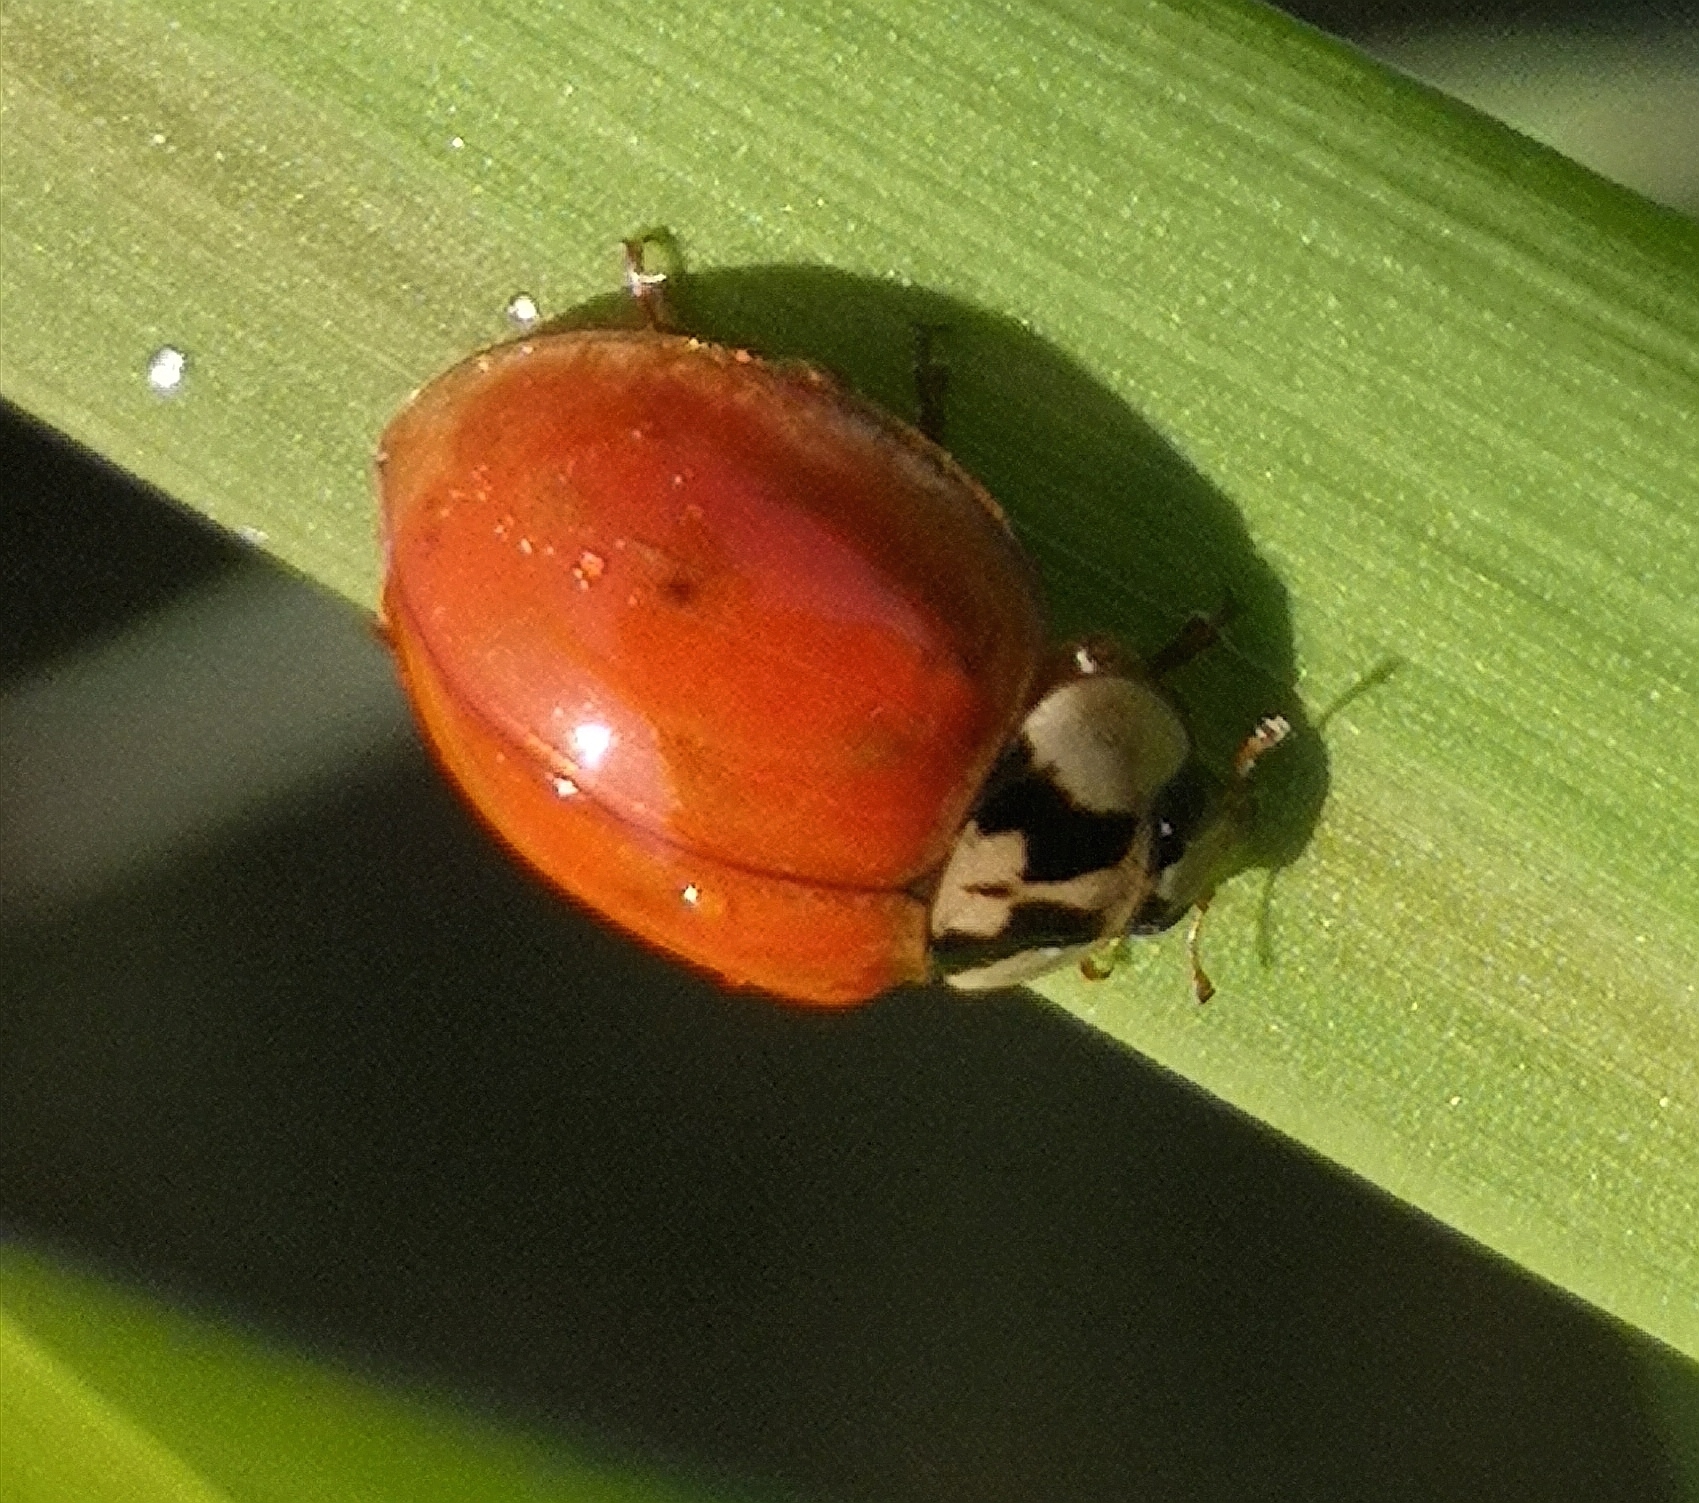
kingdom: Animalia
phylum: Arthropoda
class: Insecta
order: Coleoptera
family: Coccinellidae
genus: Harmonia
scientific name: Harmonia axyridis
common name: Harlequin ladybird
